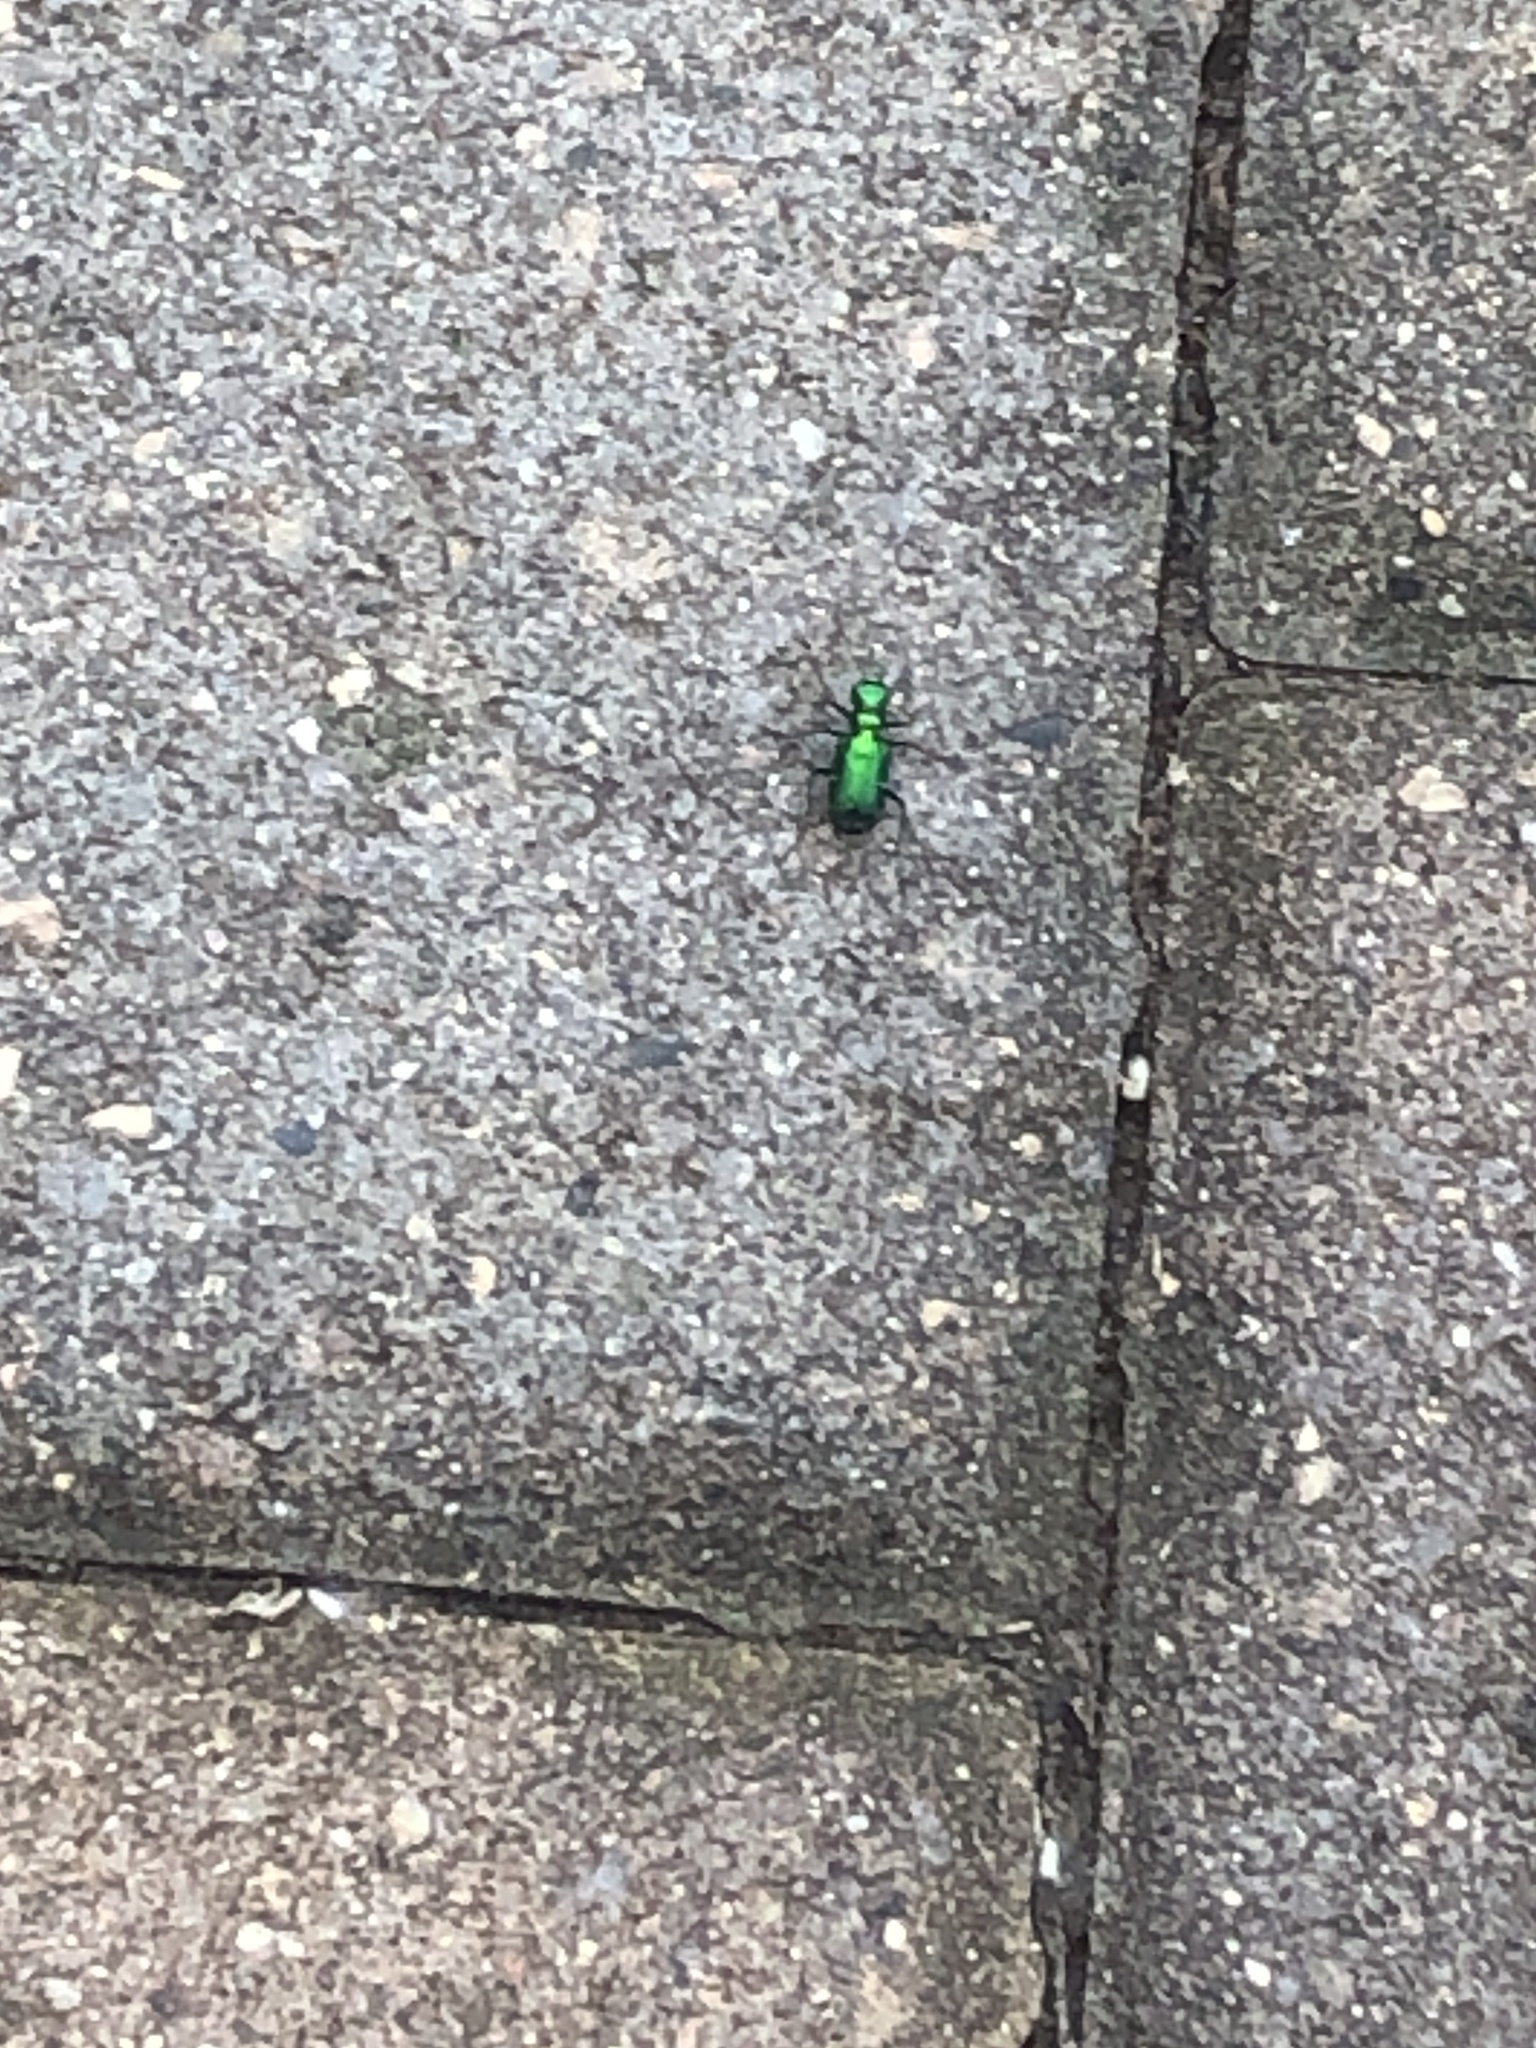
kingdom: Animalia
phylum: Arthropoda
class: Insecta
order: Coleoptera
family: Carabidae
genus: Cicindela
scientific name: Cicindela sexguttata
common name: Six-spotted tiger beetle
